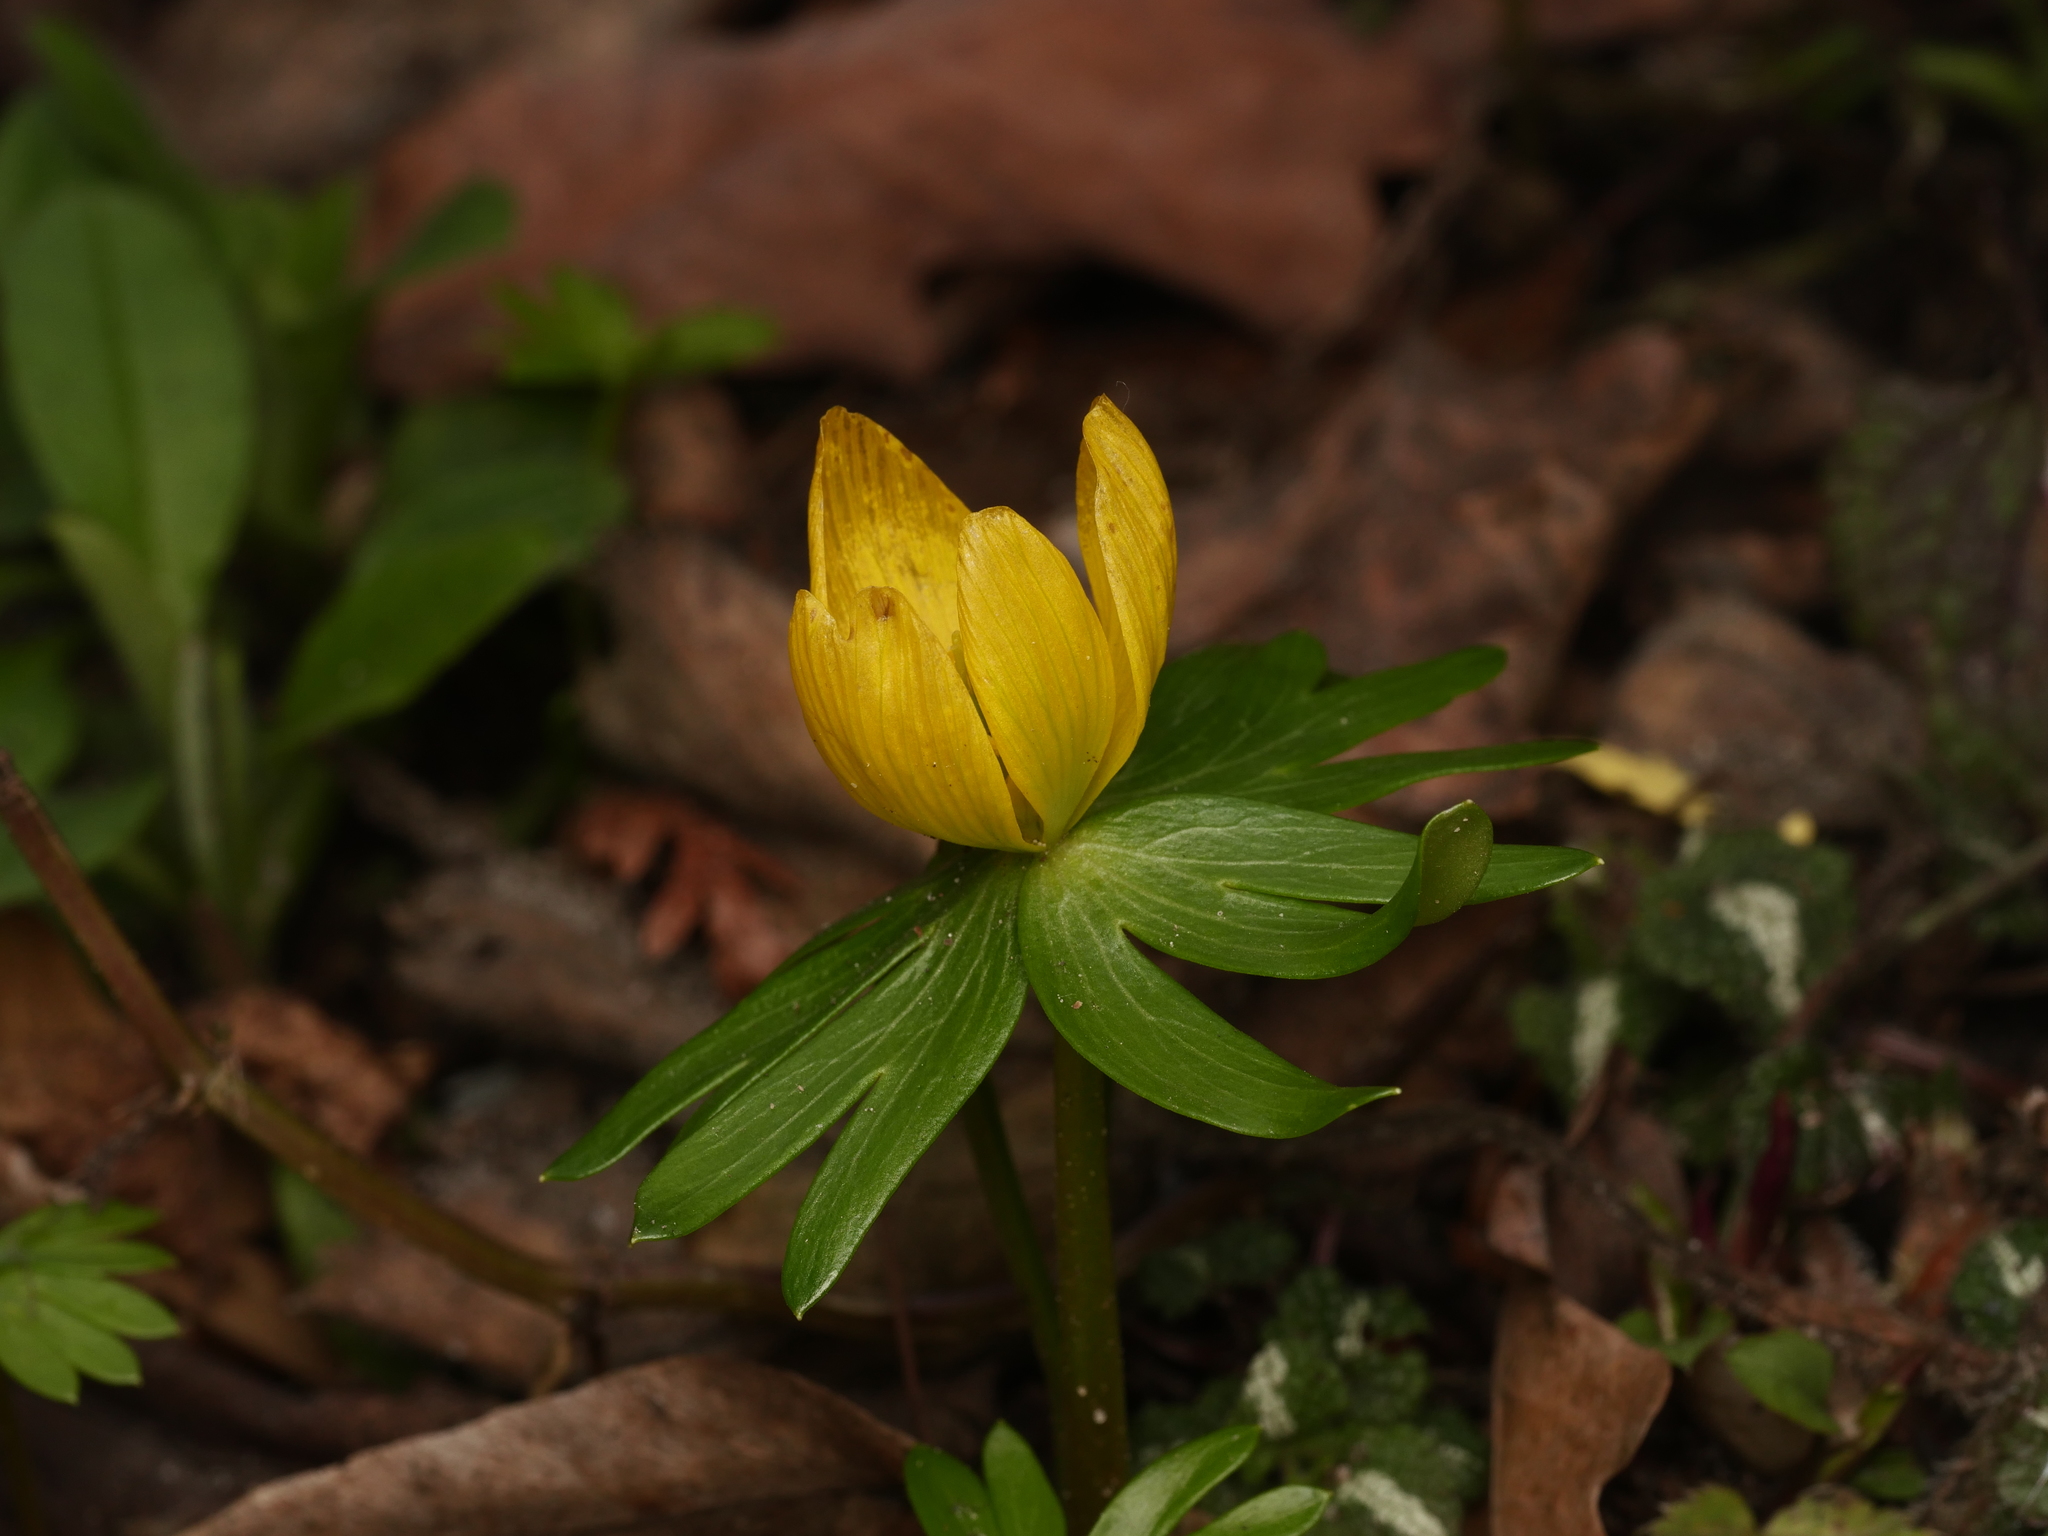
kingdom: Plantae
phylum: Tracheophyta
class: Magnoliopsida
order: Ranunculales
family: Ranunculaceae
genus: Eranthis
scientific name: Eranthis hyemalis
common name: Winter aconite
